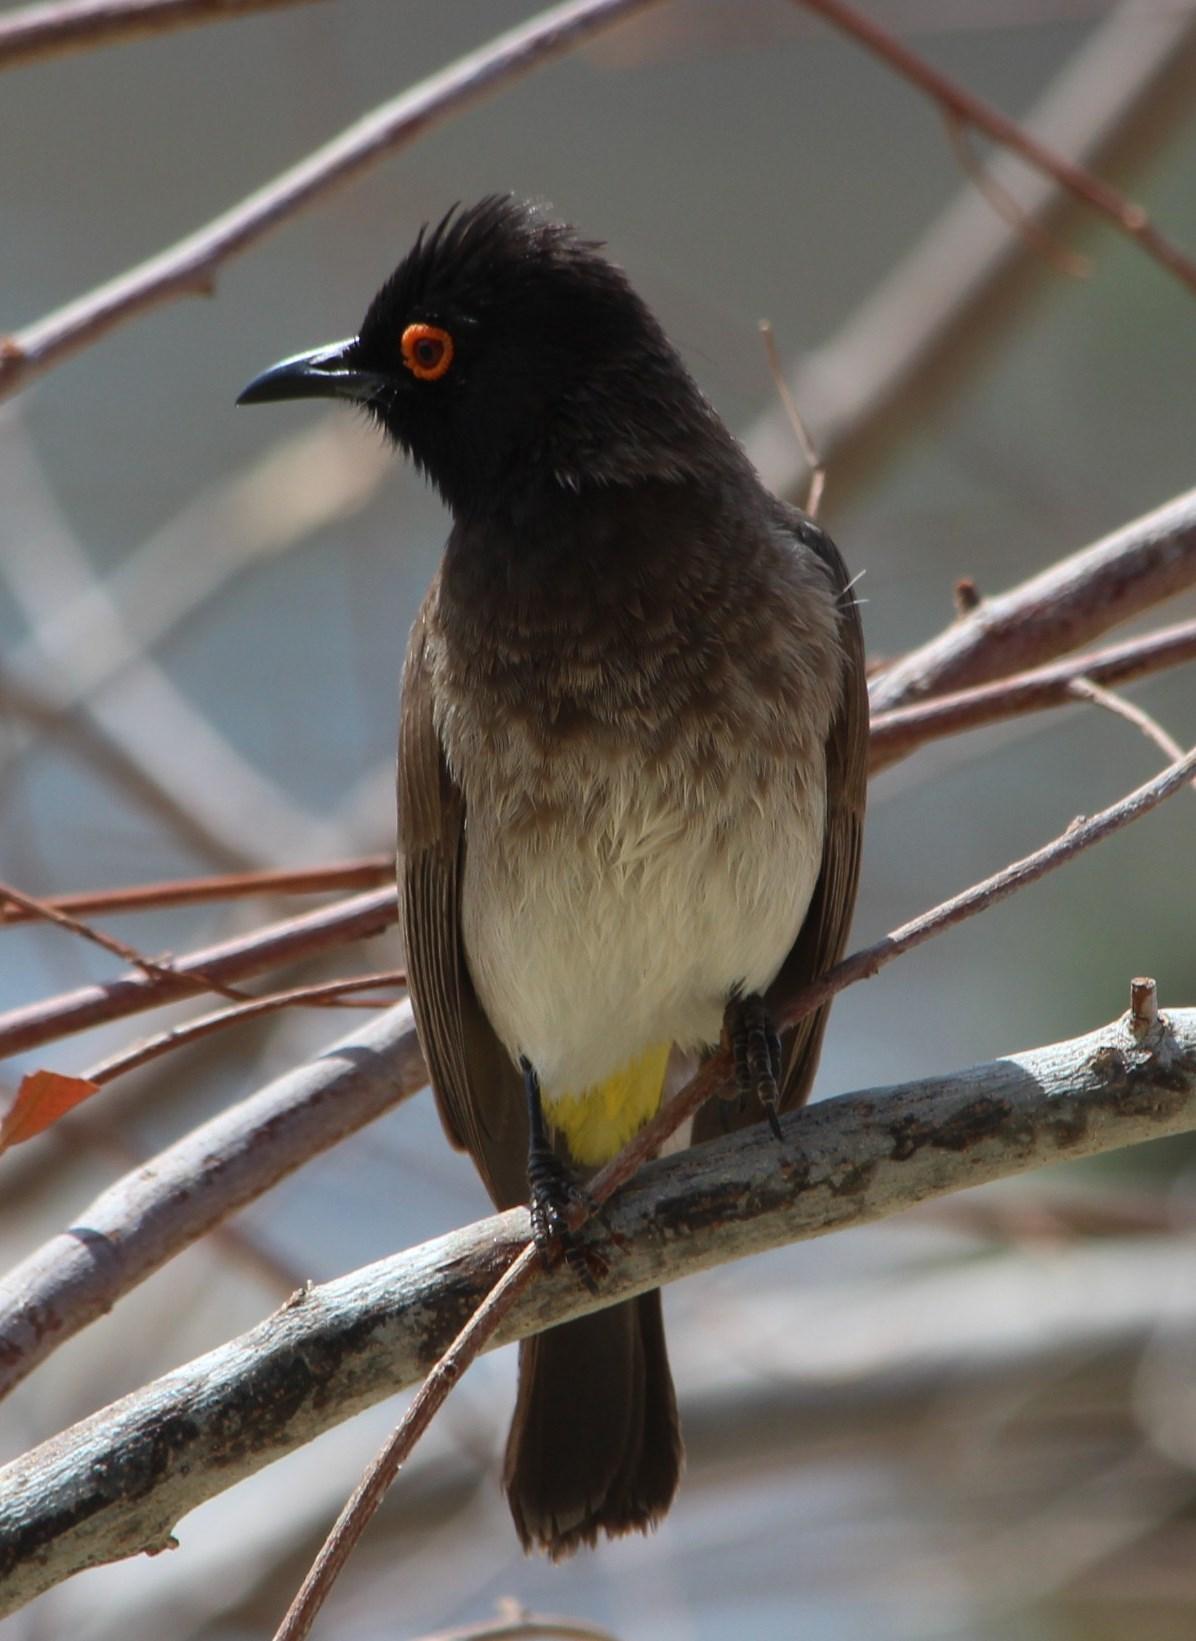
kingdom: Animalia
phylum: Chordata
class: Aves
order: Passeriformes
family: Pycnonotidae
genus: Pycnonotus
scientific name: Pycnonotus nigricans
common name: African red-eyed bulbul
